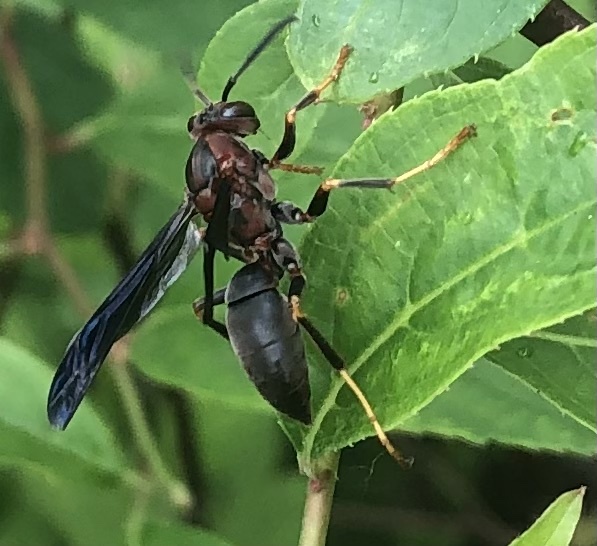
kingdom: Animalia
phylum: Arthropoda
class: Insecta
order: Hymenoptera
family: Eumenidae
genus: Polistes
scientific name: Polistes metricus
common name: Metric paper wasp
